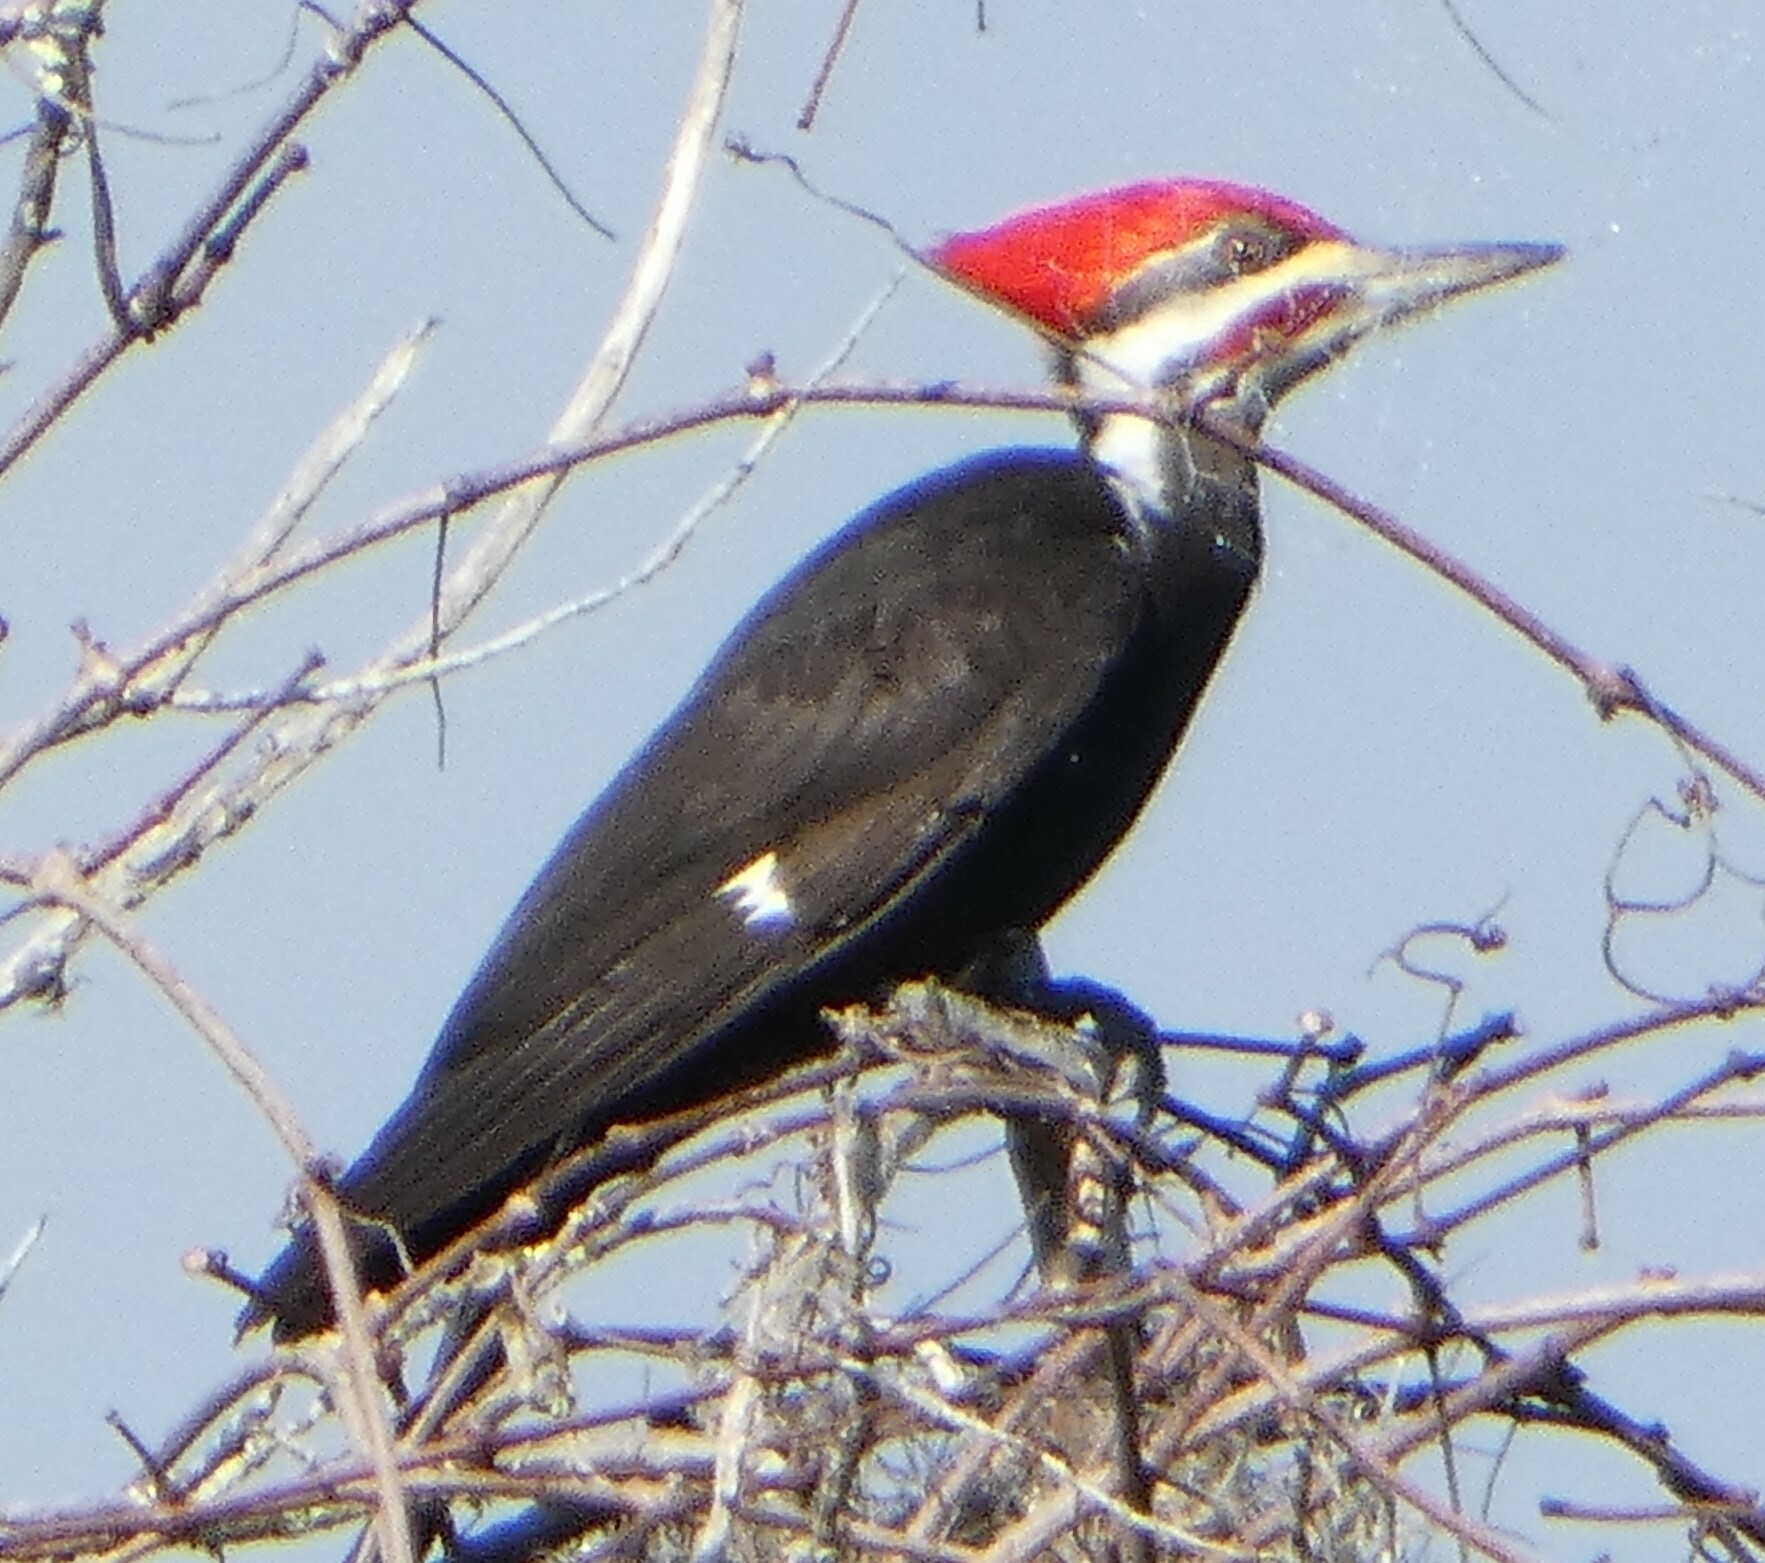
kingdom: Animalia
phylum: Chordata
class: Aves
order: Piciformes
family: Picidae
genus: Dryocopus
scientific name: Dryocopus pileatus
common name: Pileated woodpecker
